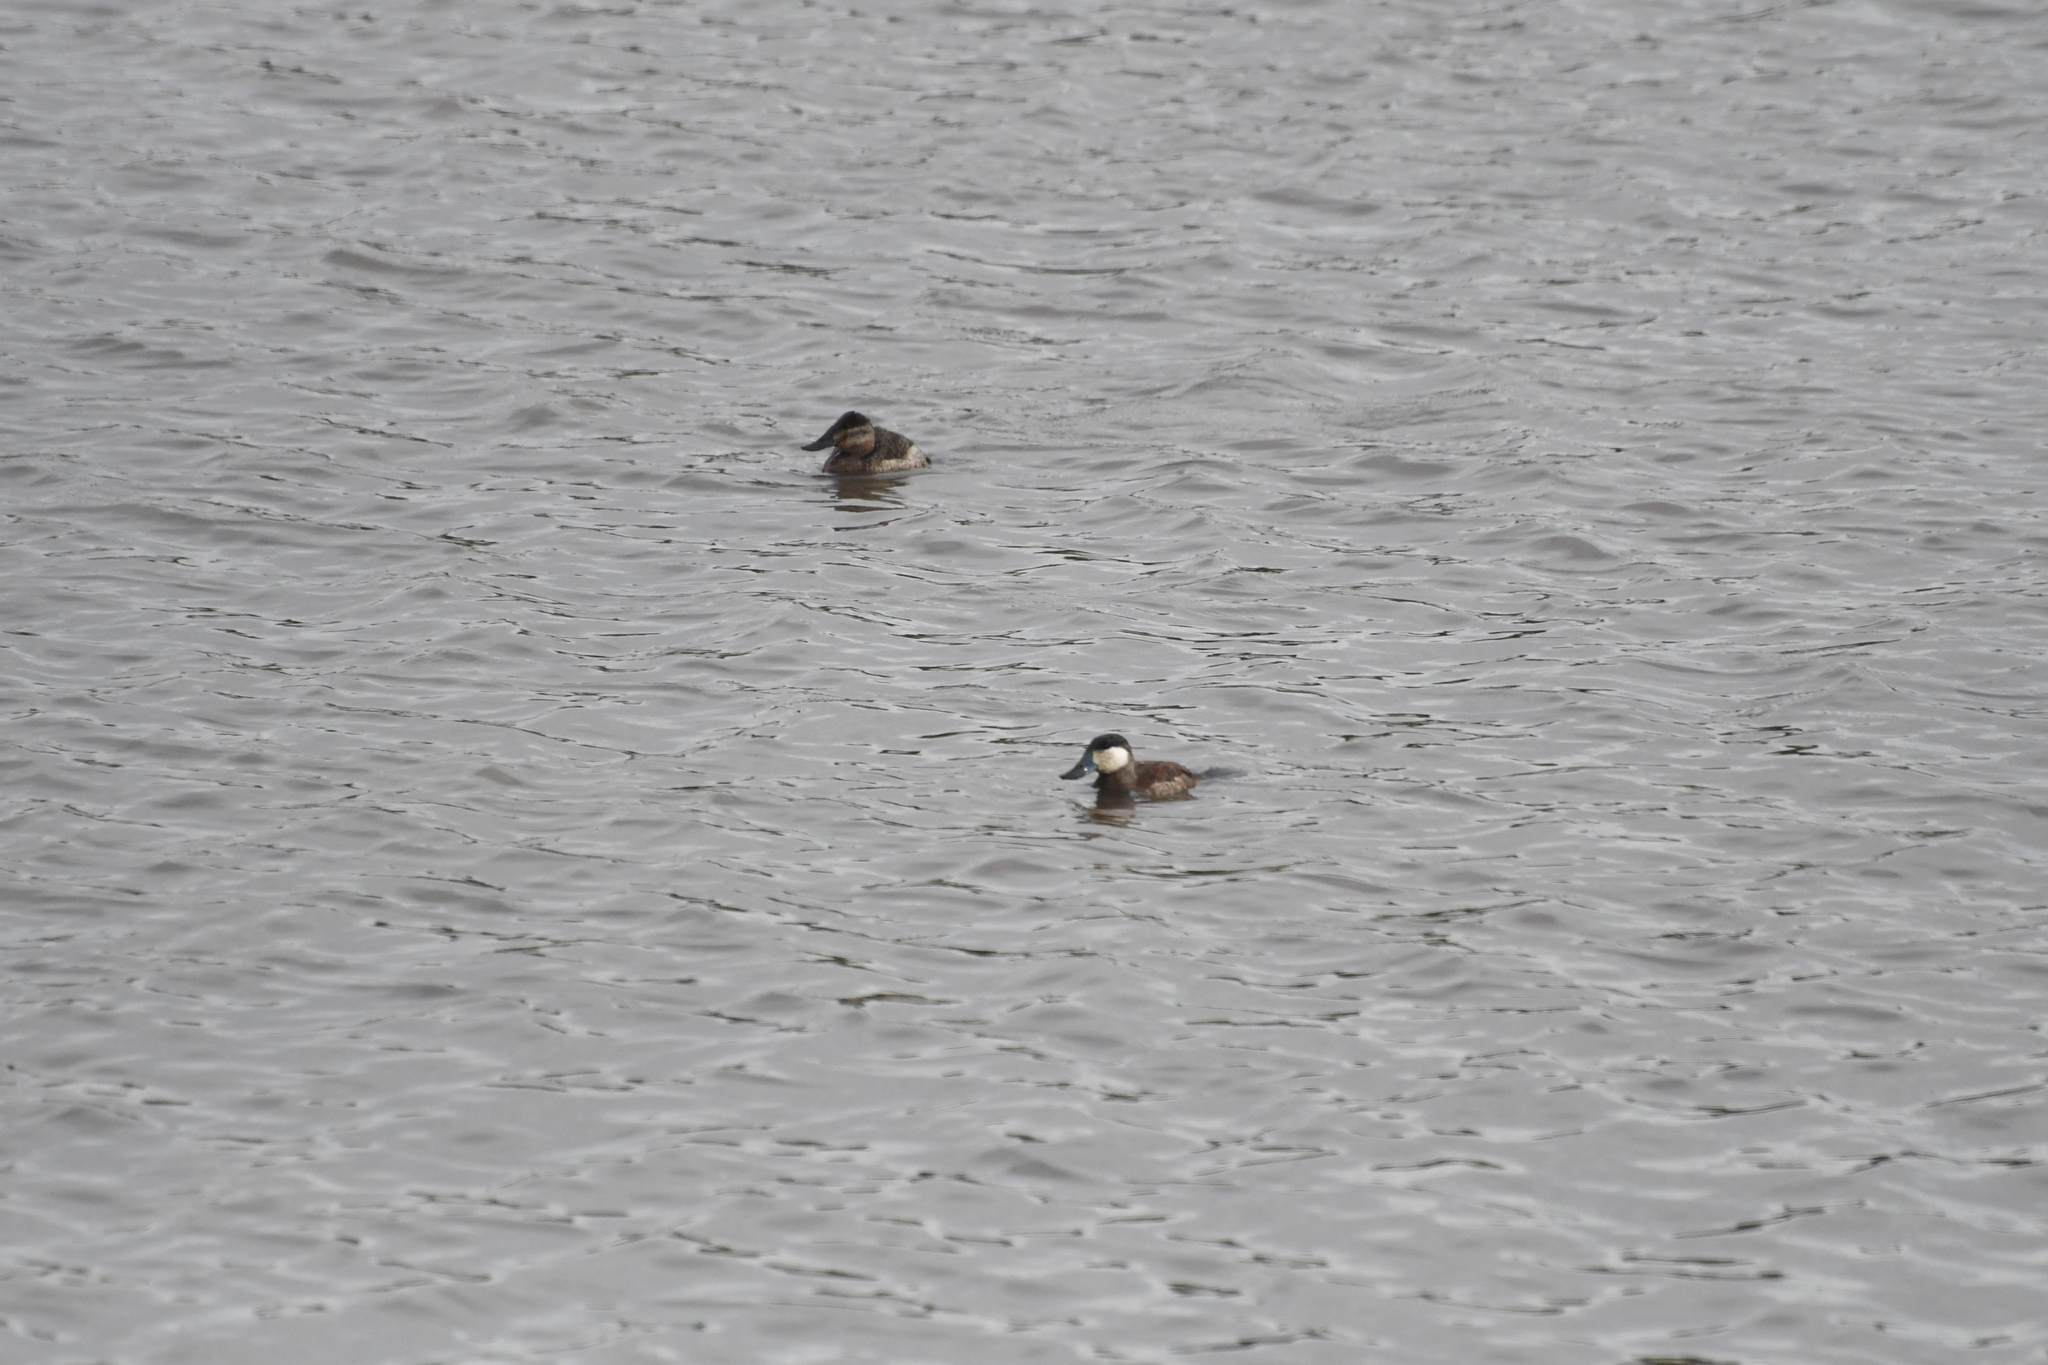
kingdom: Animalia
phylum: Chordata
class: Aves
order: Anseriformes
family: Anatidae
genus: Oxyura
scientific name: Oxyura jamaicensis
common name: Ruddy duck
